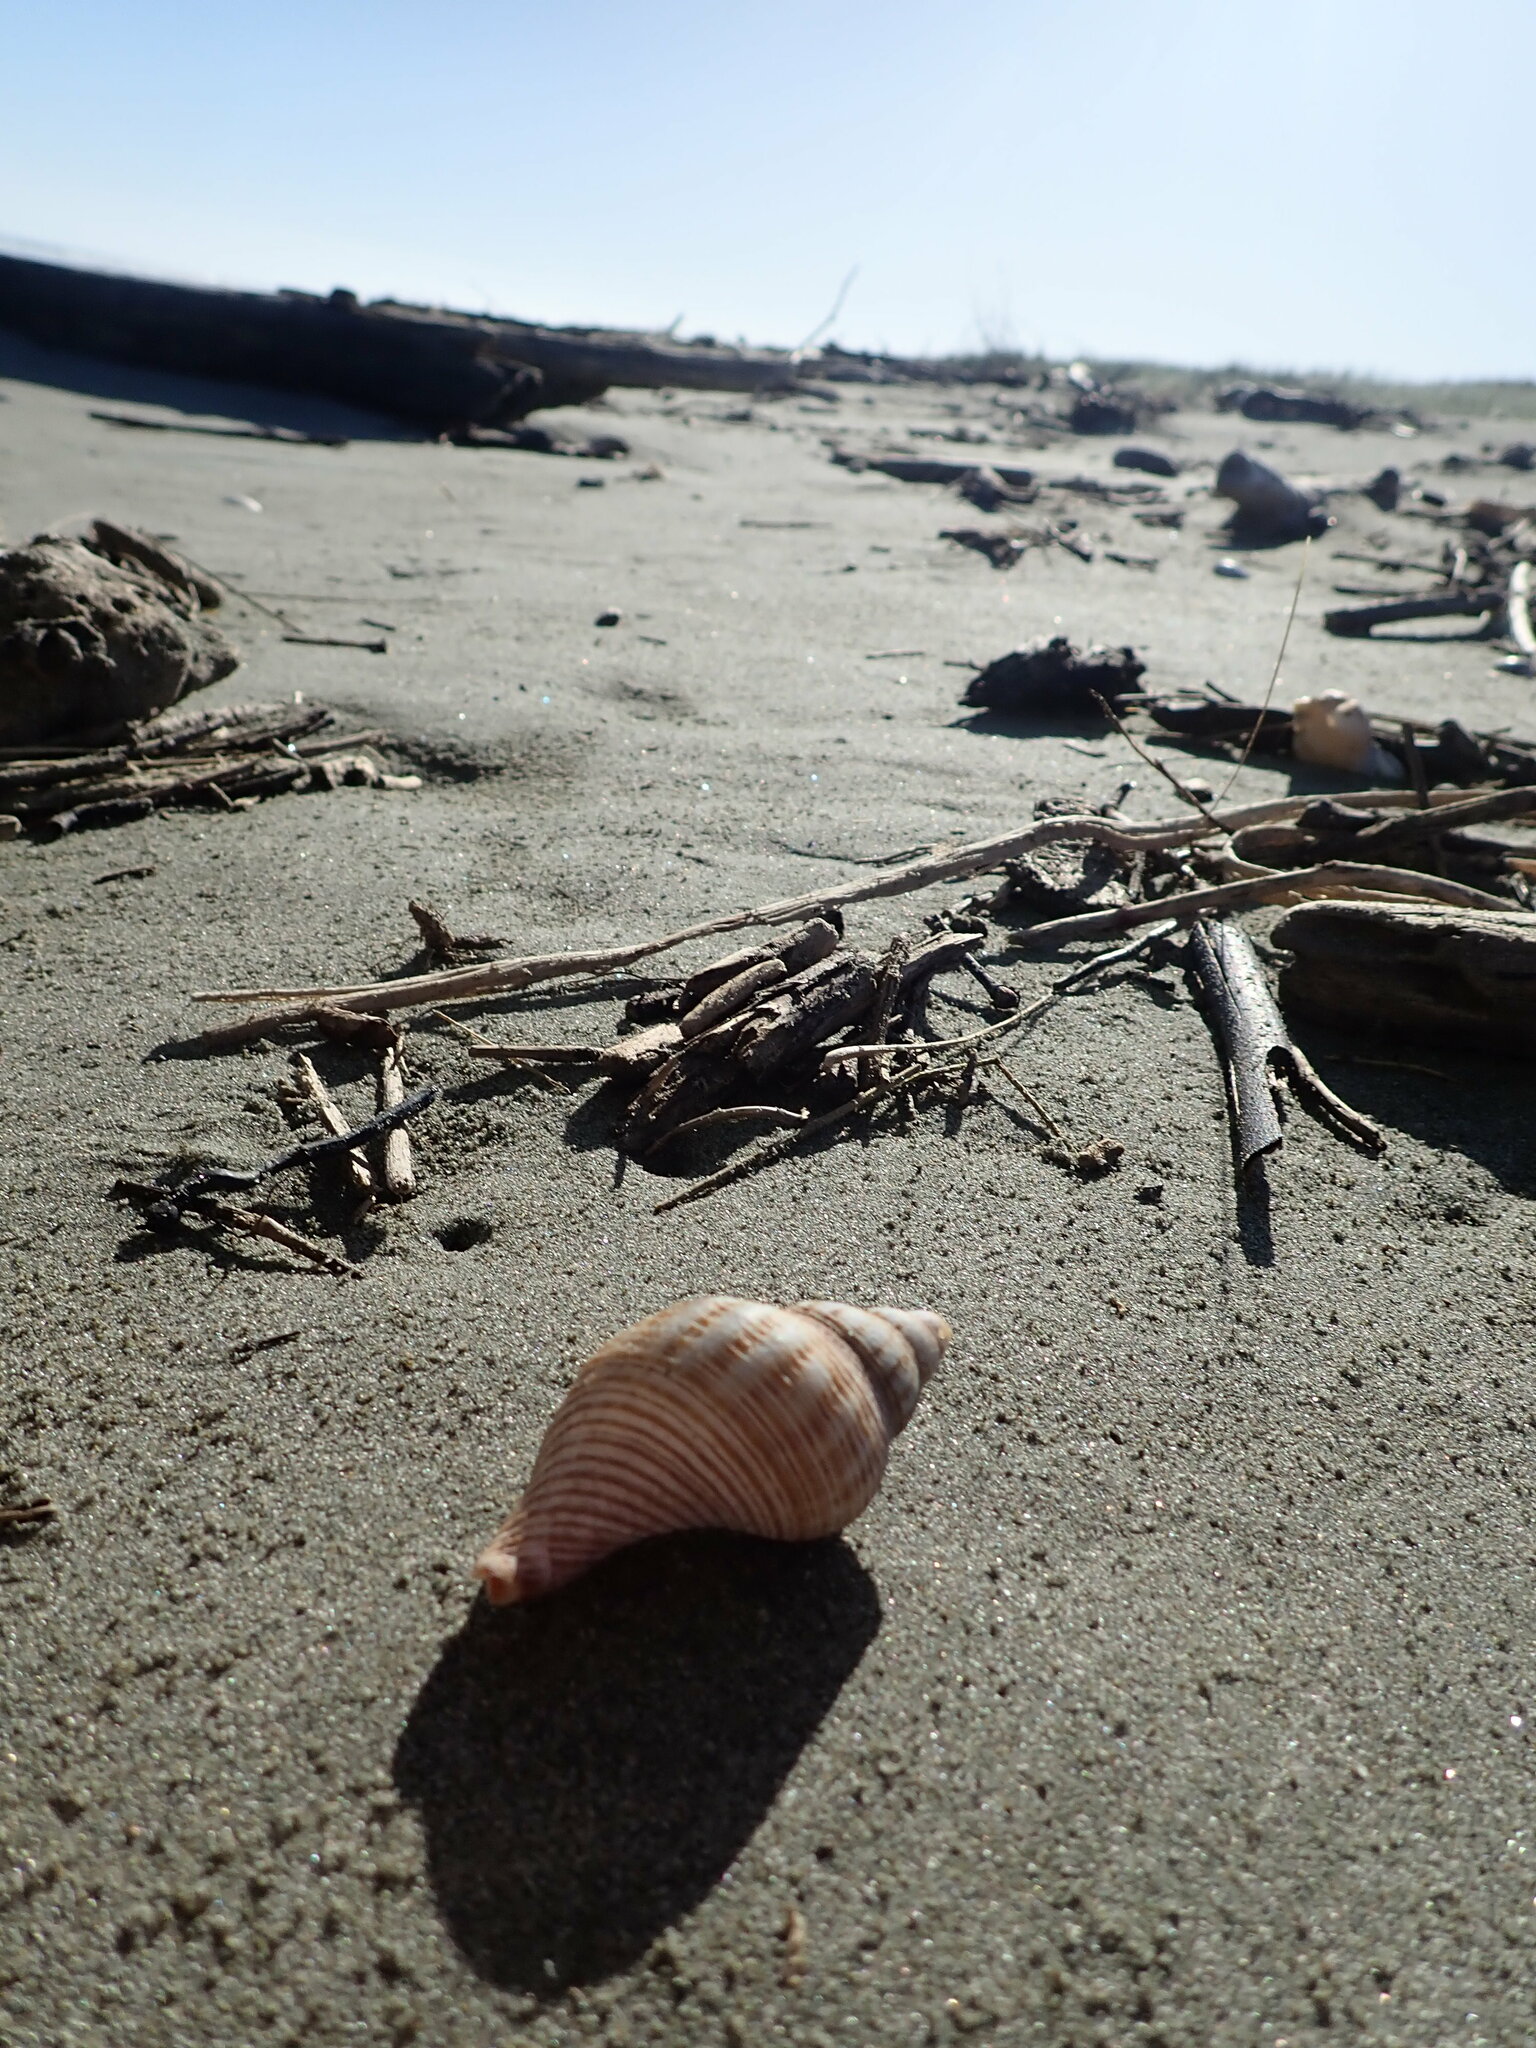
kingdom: Animalia
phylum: Mollusca
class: Gastropoda
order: Neogastropoda
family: Austrosiphonidae
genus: Penion
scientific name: Penion sulcatus
